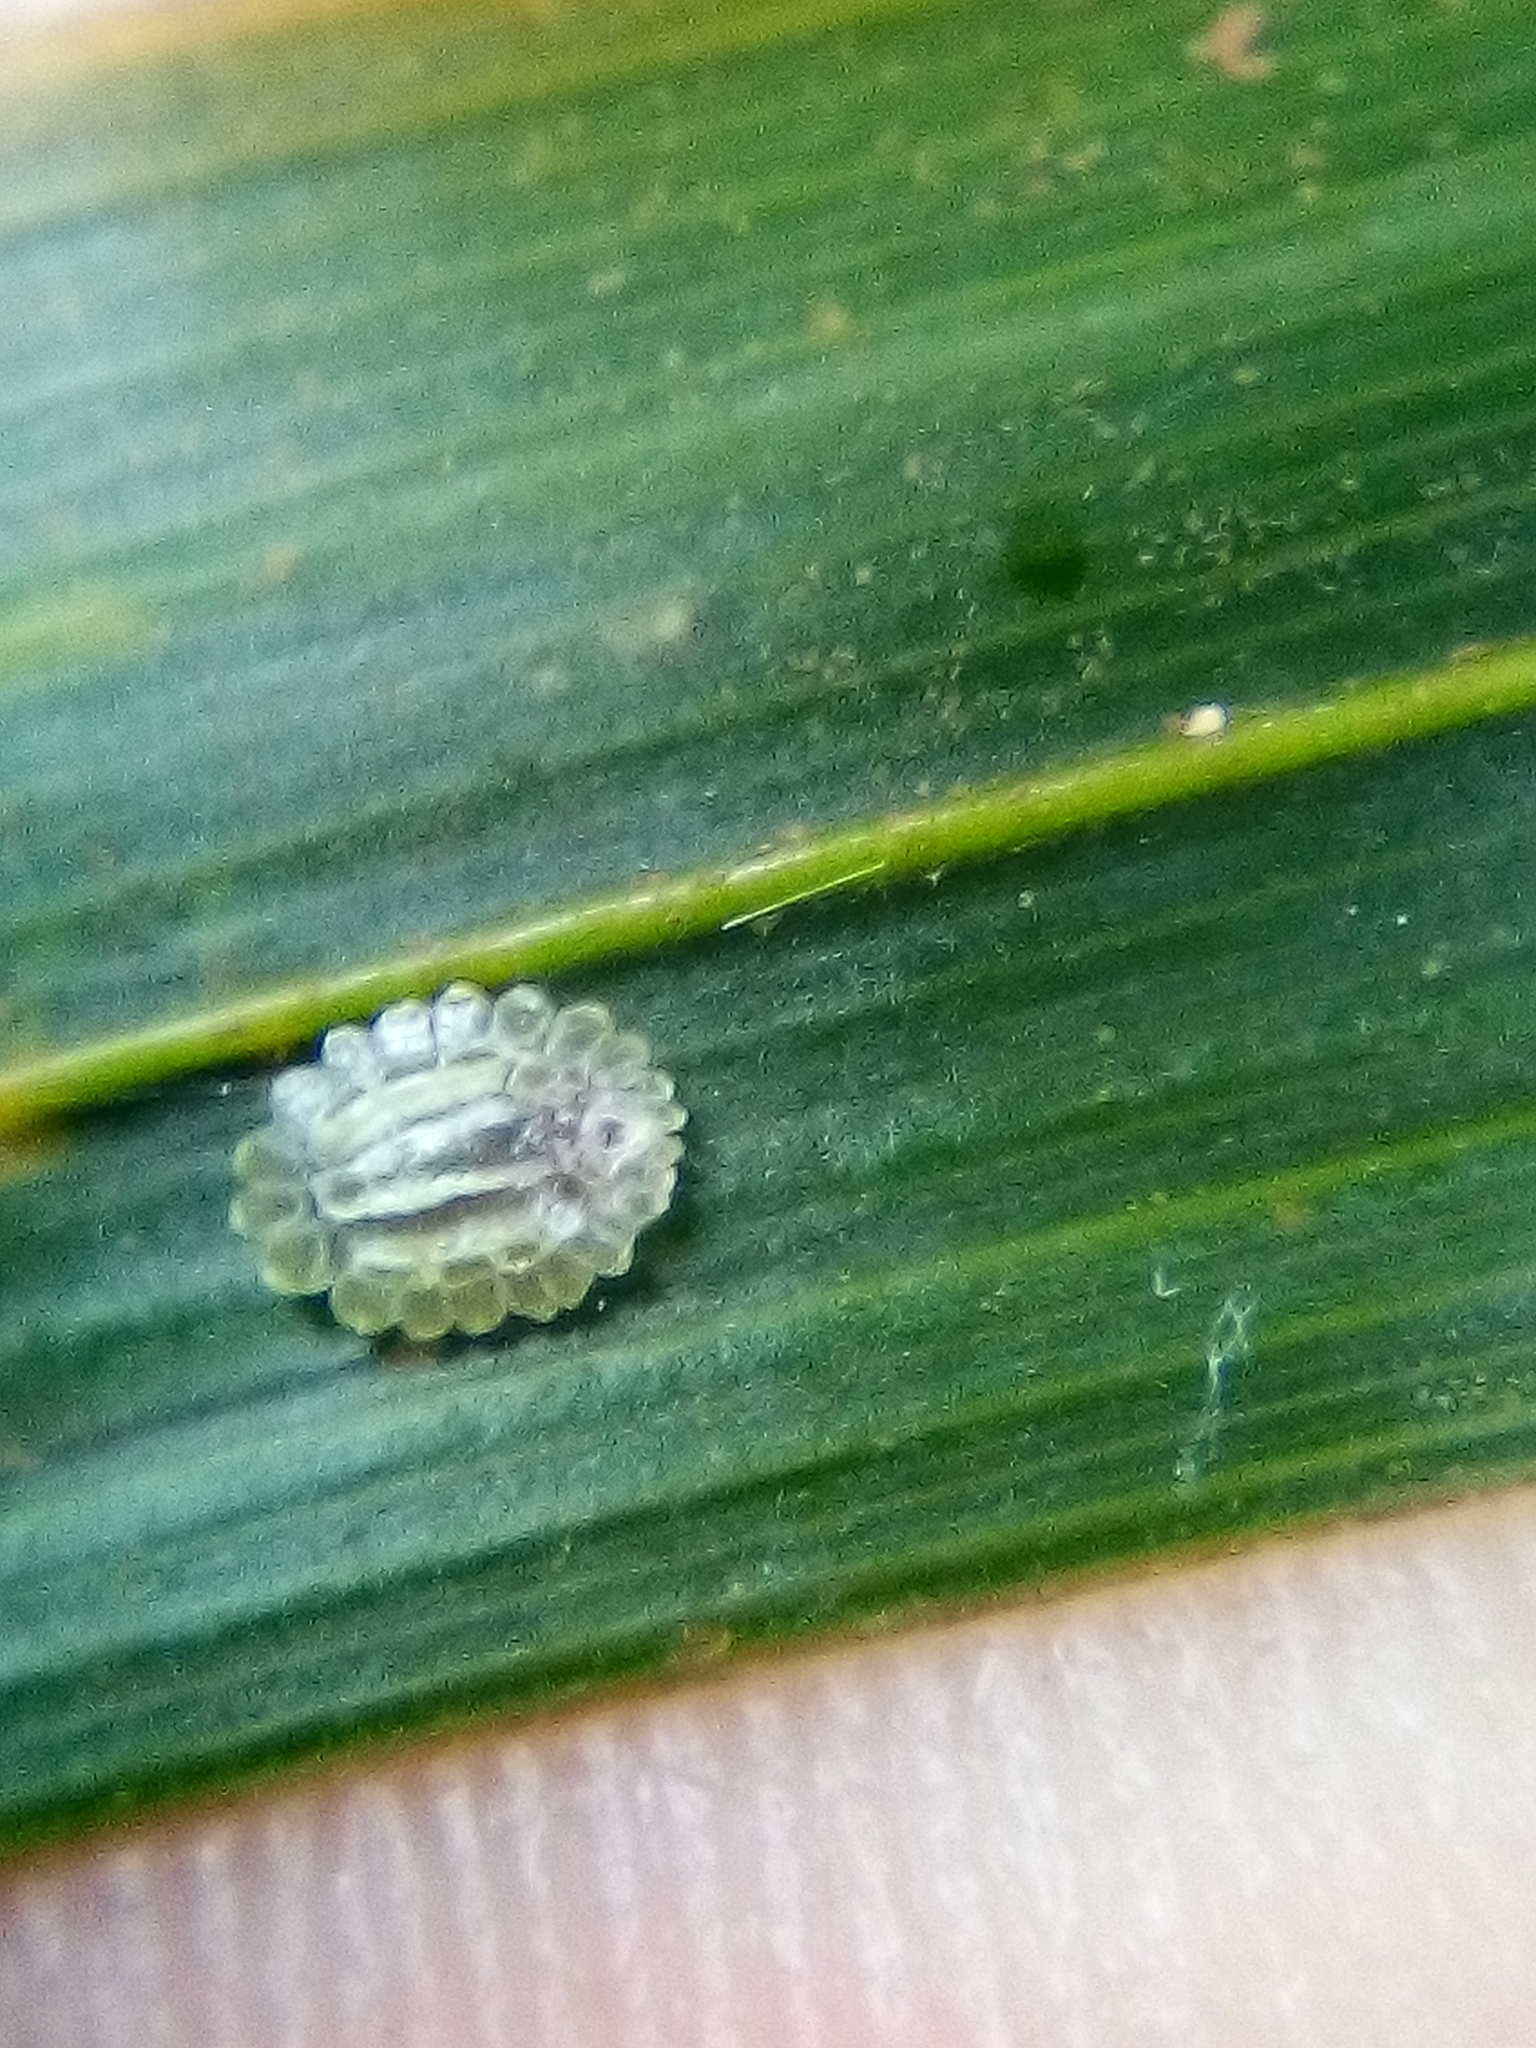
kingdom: Animalia
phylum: Arthropoda
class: Insecta
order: Hemiptera
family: Coccidae
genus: Plumichiton
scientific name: Plumichiton nikau
